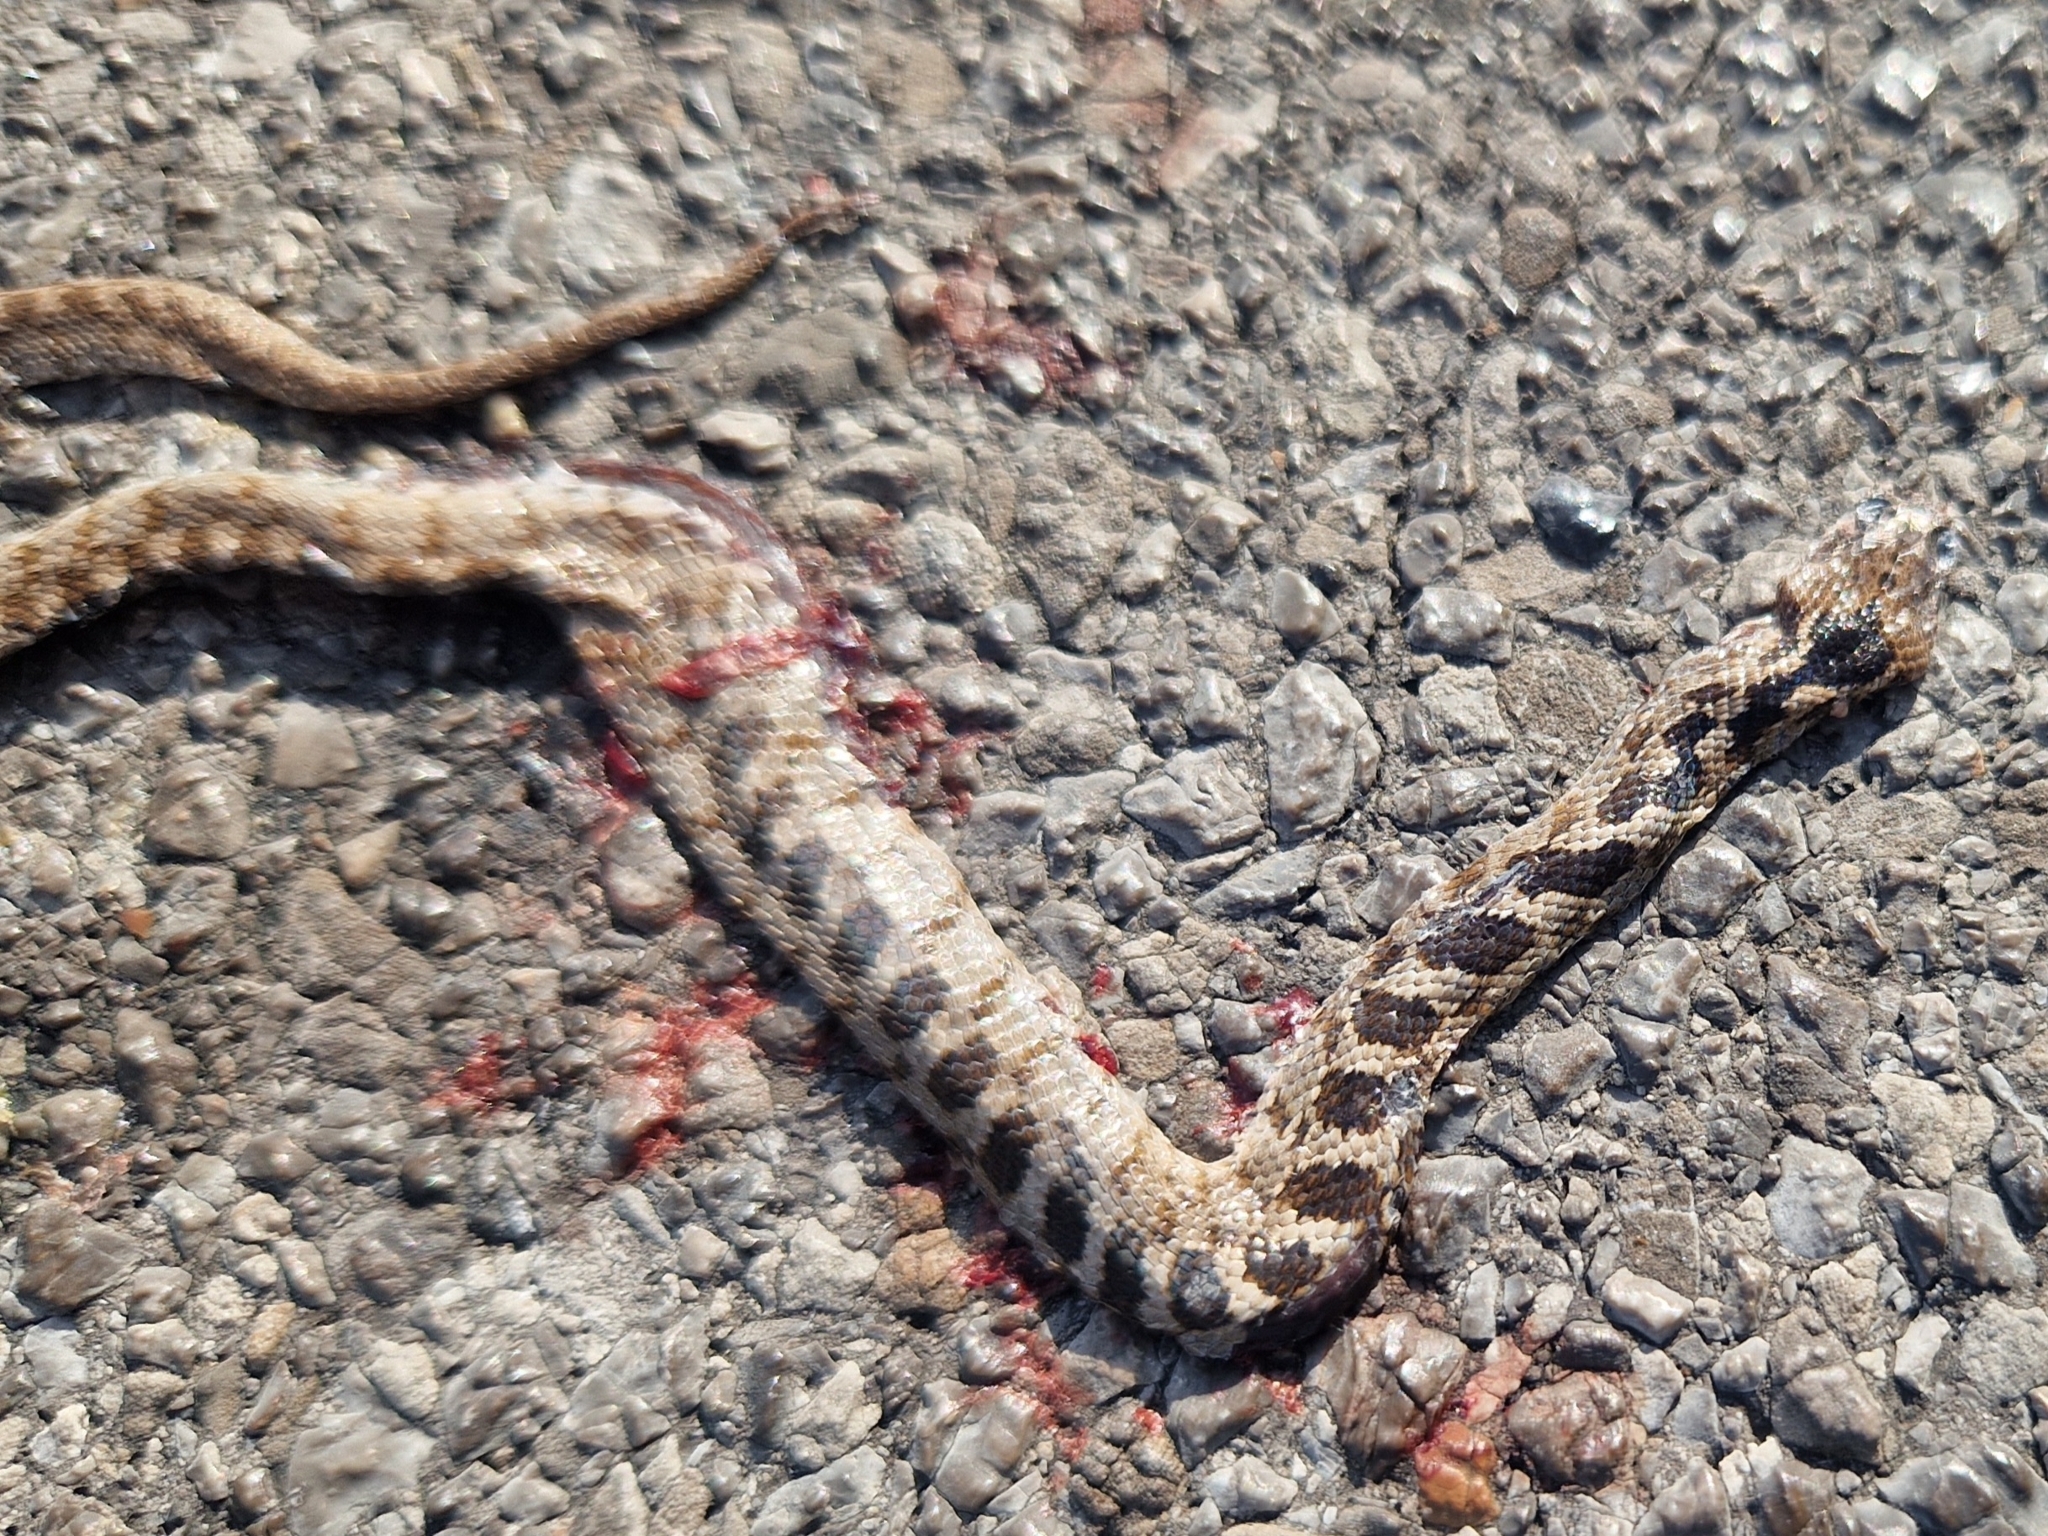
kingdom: Animalia
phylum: Chordata
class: Squamata
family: Colubridae
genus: Telescopus
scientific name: Telescopus fallax
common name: Cat snake
